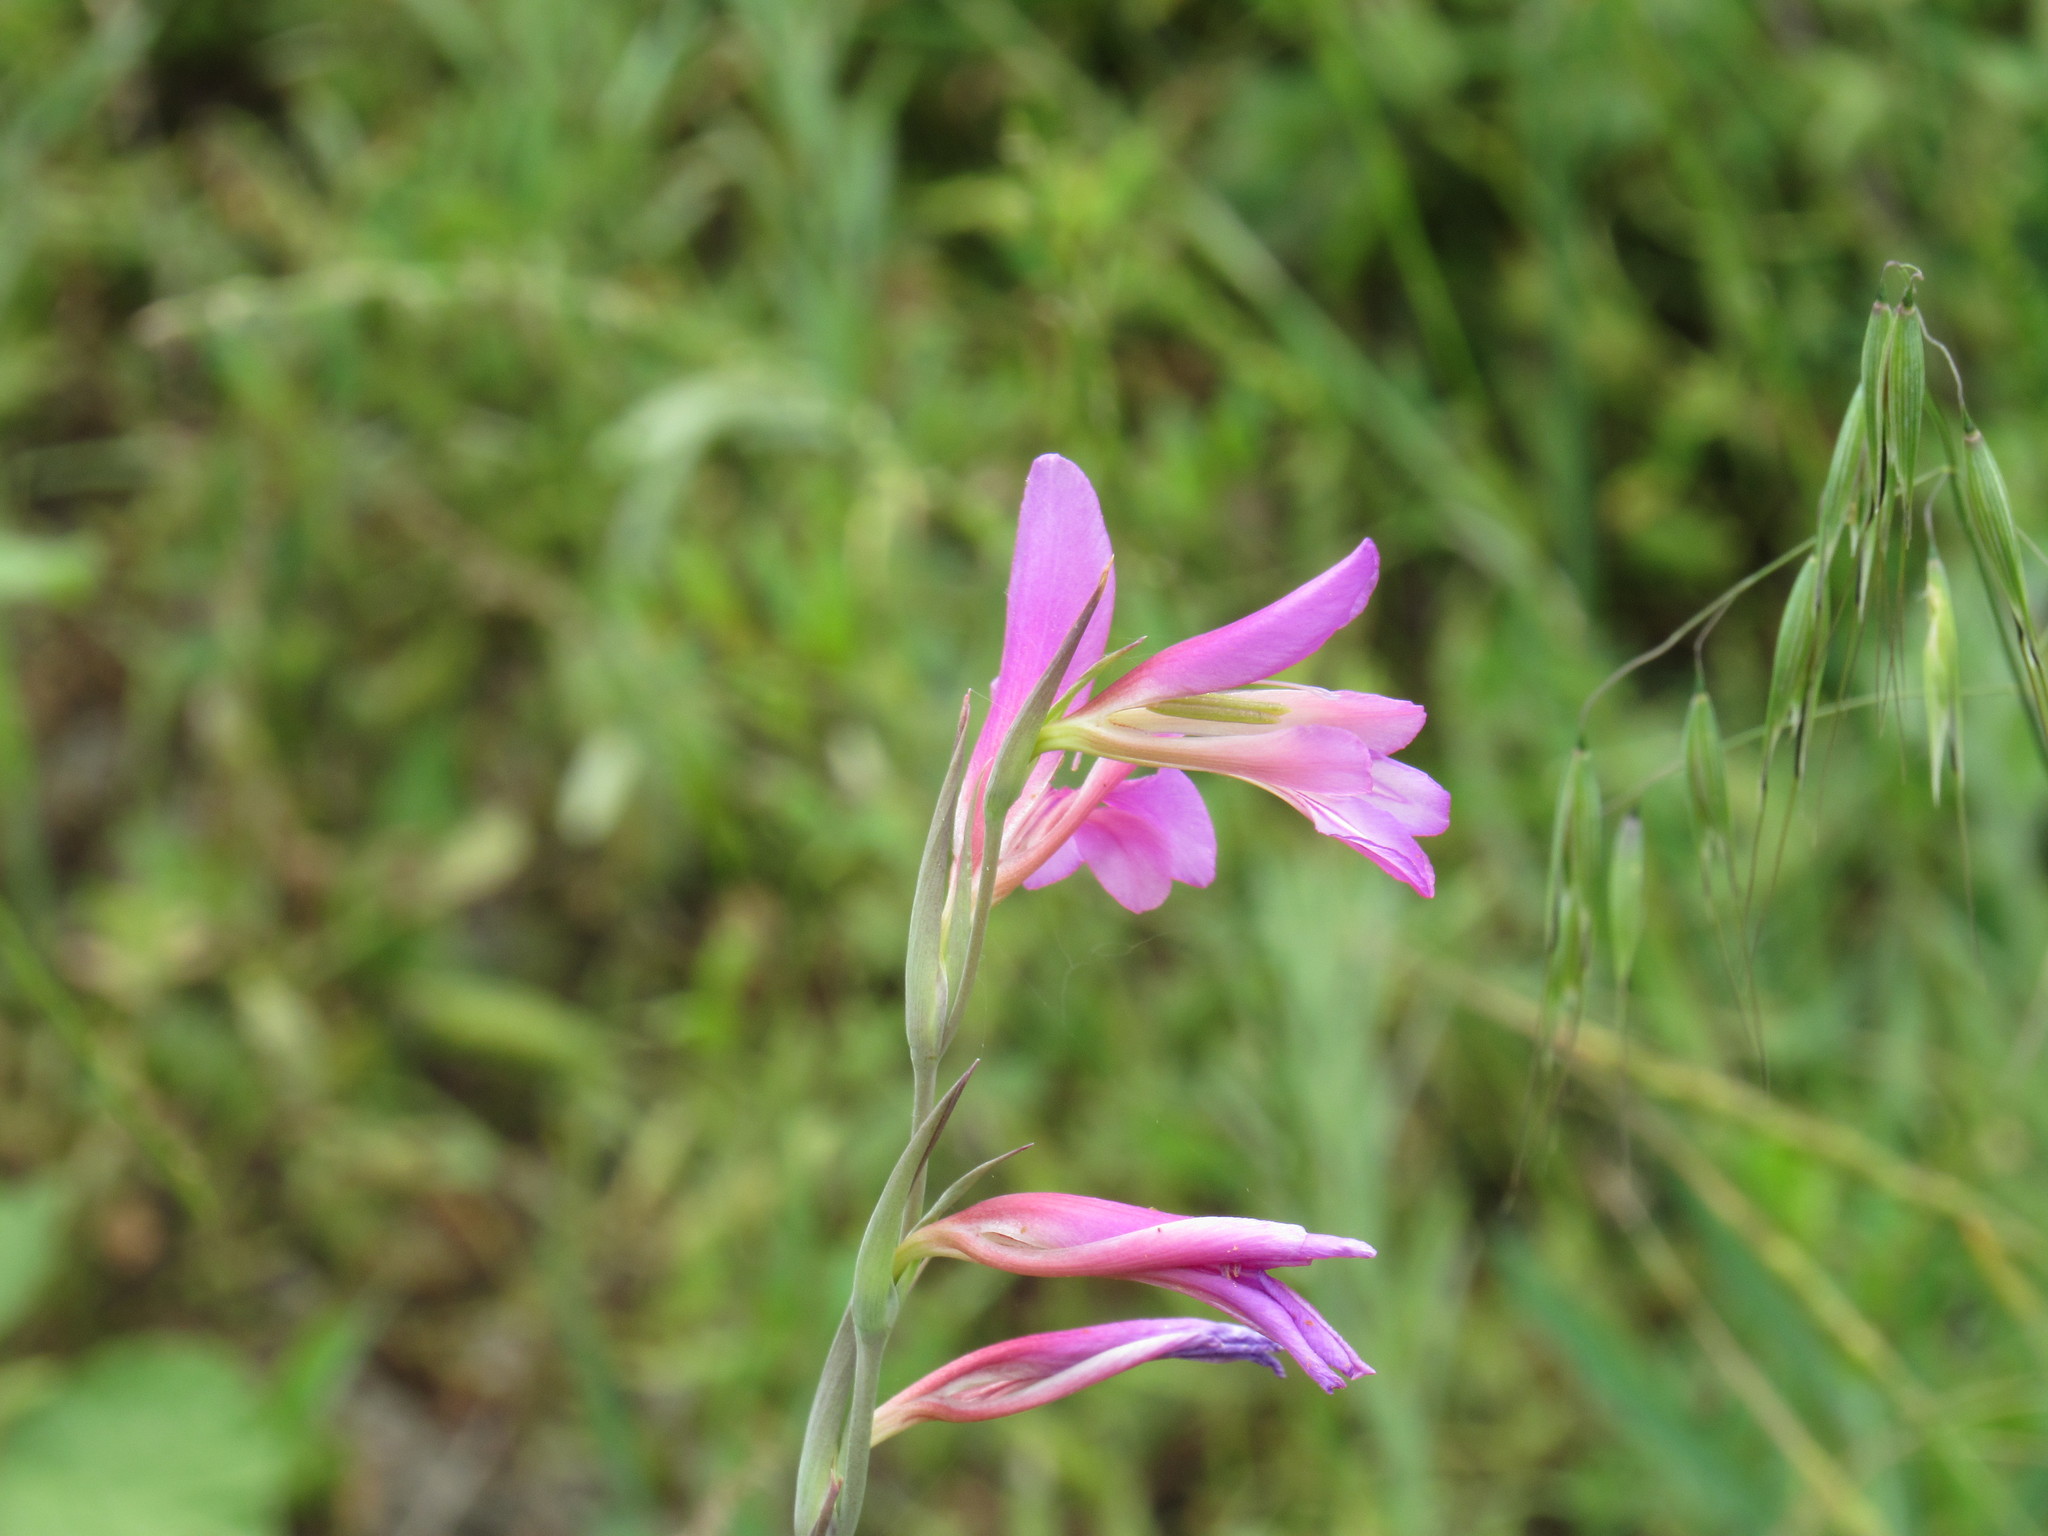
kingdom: Plantae
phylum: Tracheophyta
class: Liliopsida
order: Asparagales
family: Iridaceae
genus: Gladiolus
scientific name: Gladiolus italicus
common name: Field gladiolus
